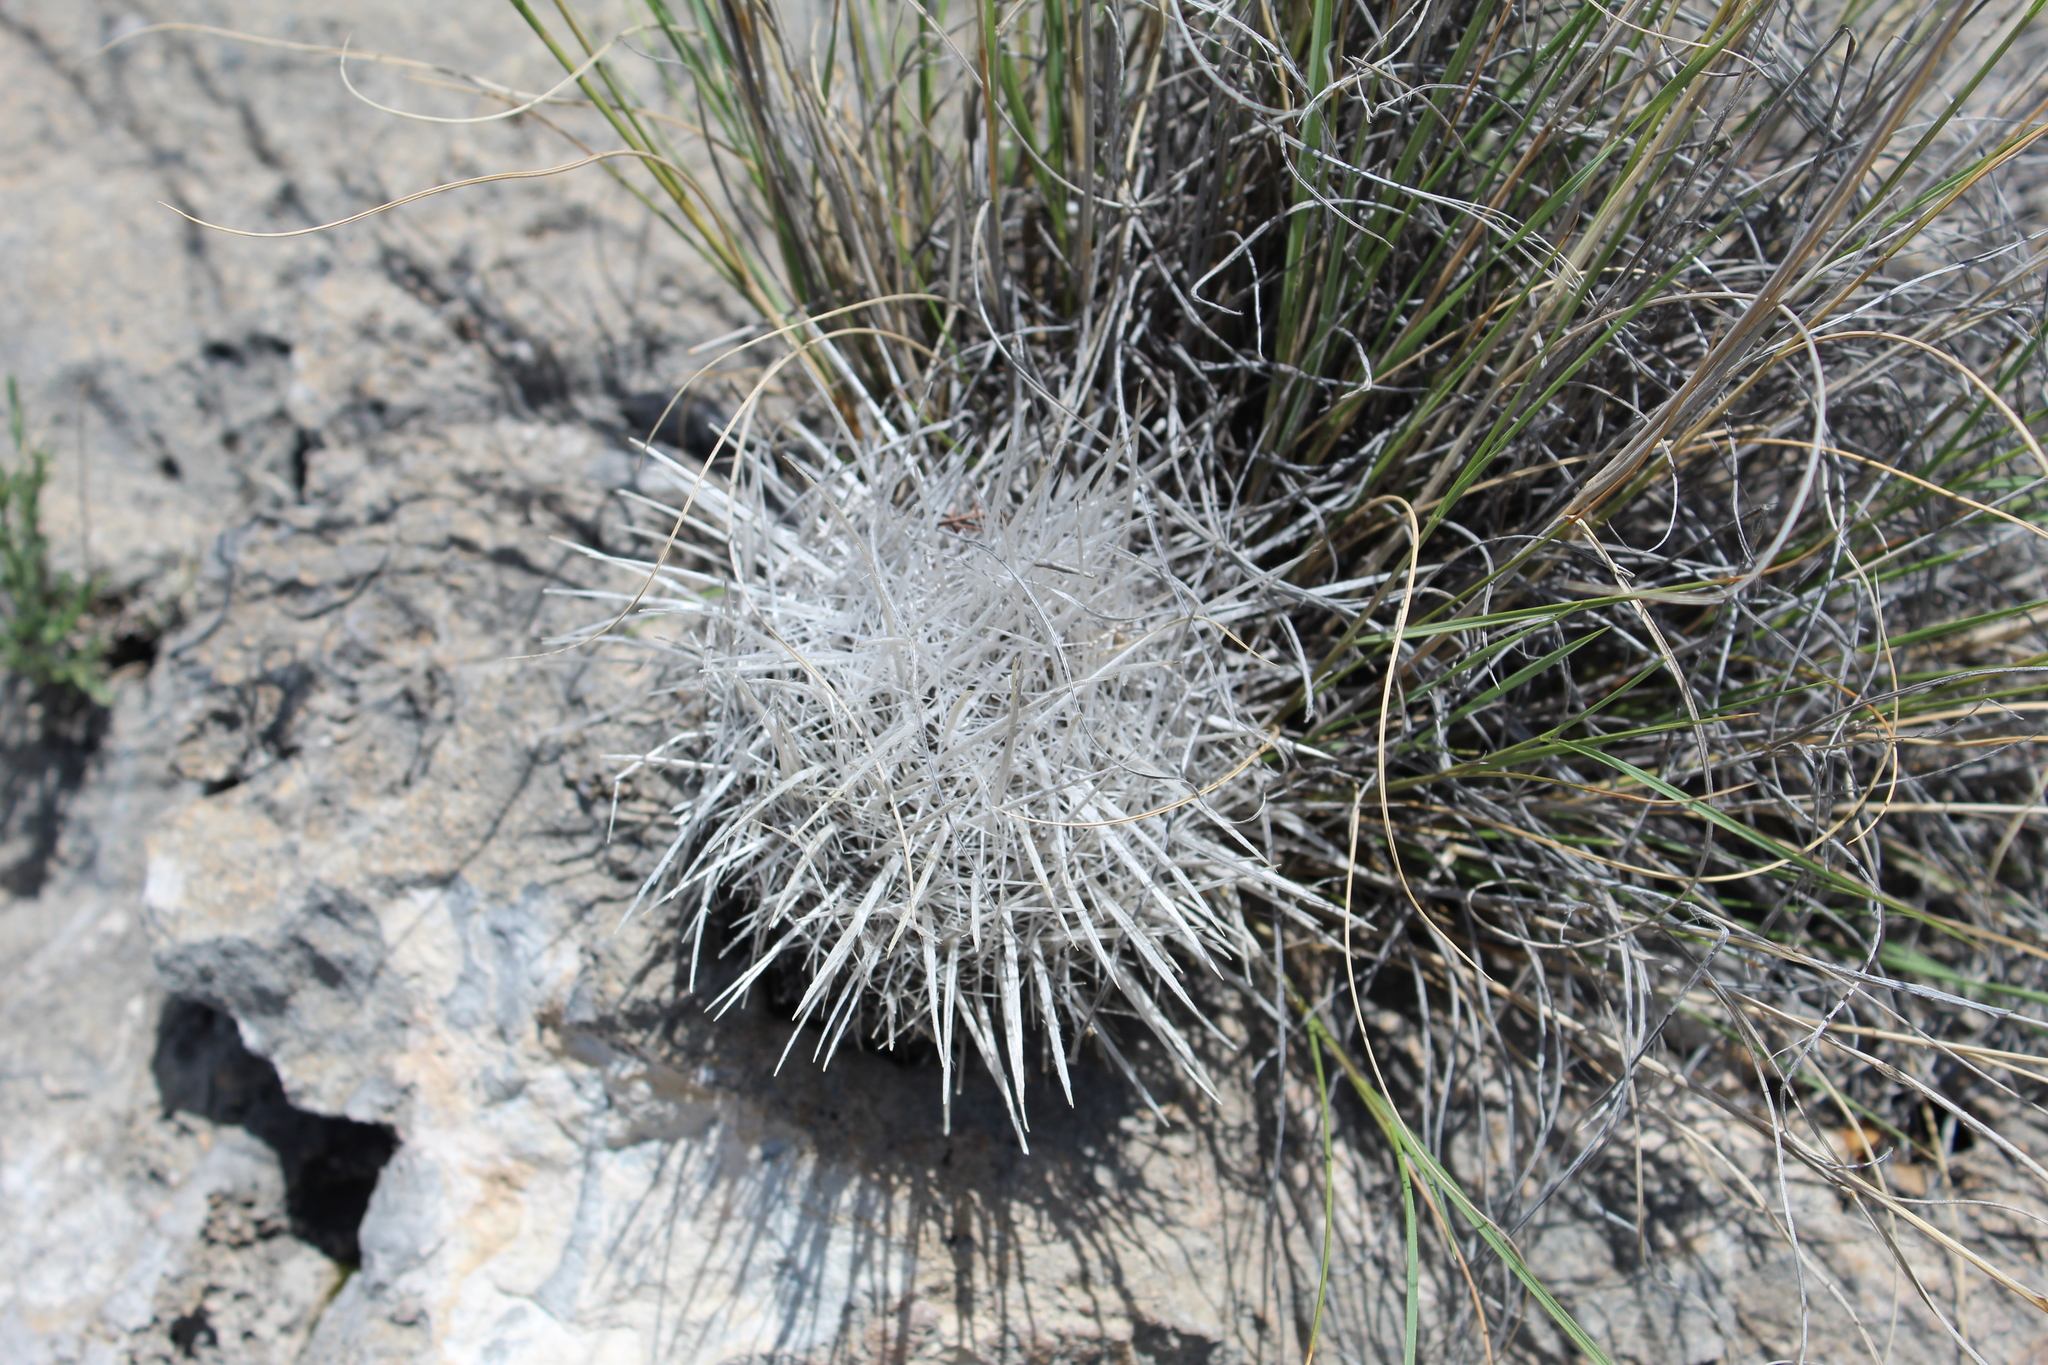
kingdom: Plantae
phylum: Tracheophyta
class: Magnoliopsida
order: Caryophyllales
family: Cactaceae
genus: Thelocactus
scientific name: Thelocactus conothelos
